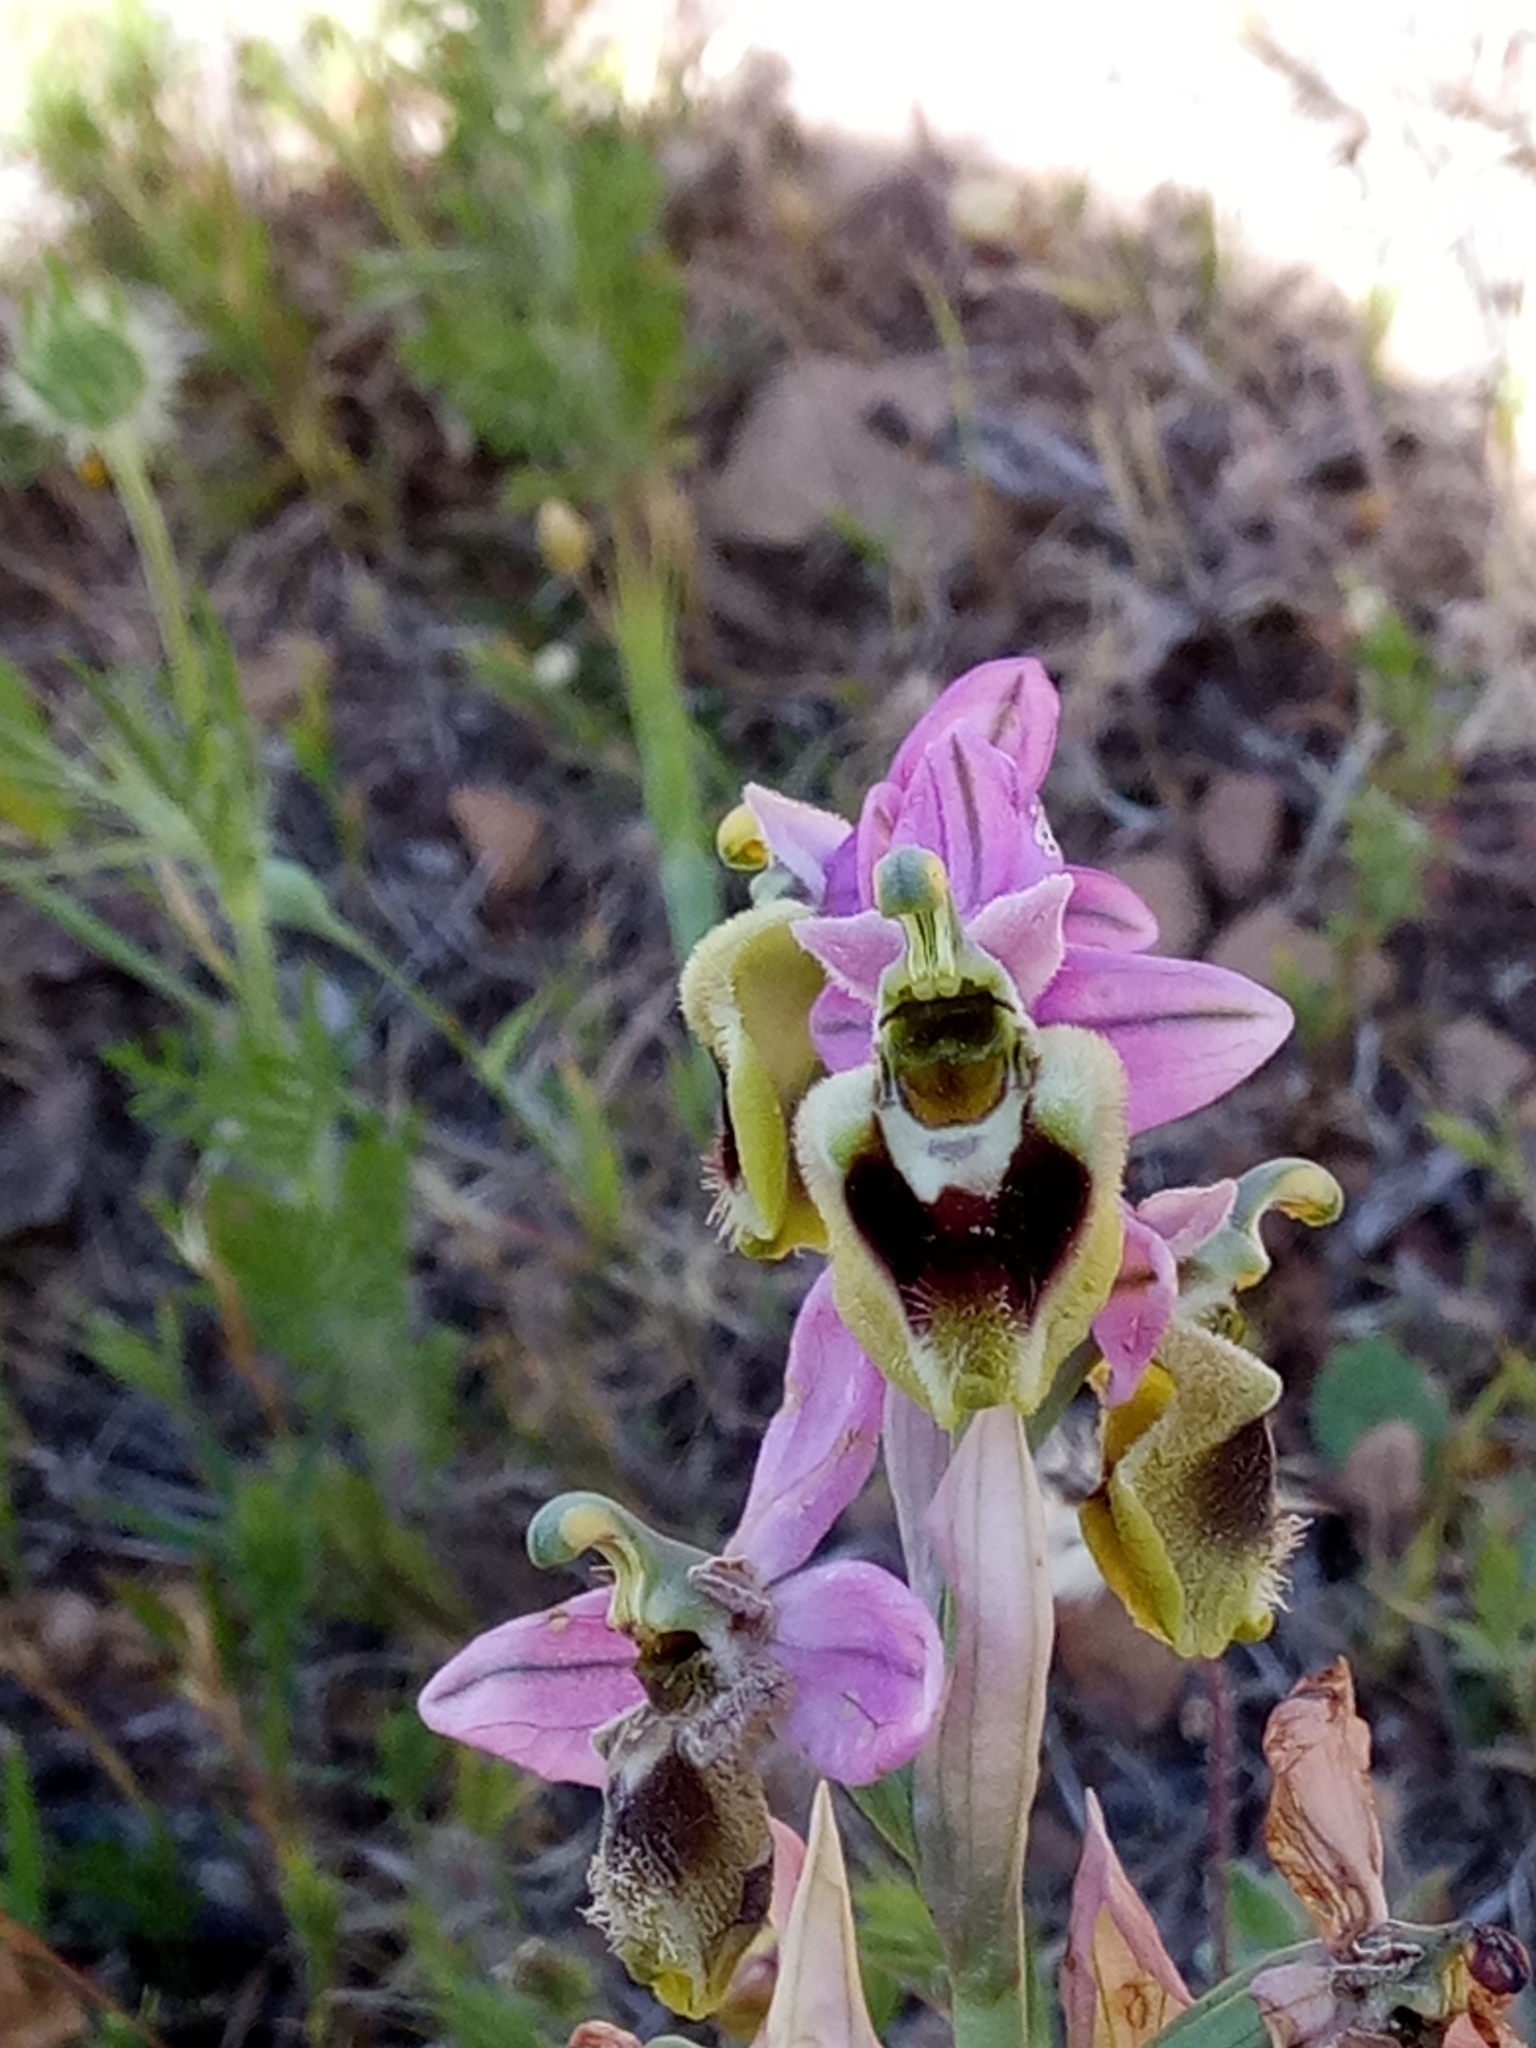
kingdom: Plantae
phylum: Tracheophyta
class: Liliopsida
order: Asparagales
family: Orchidaceae
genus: Ophrys
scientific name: Ophrys tenthredinifera
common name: Sawfly orchid
